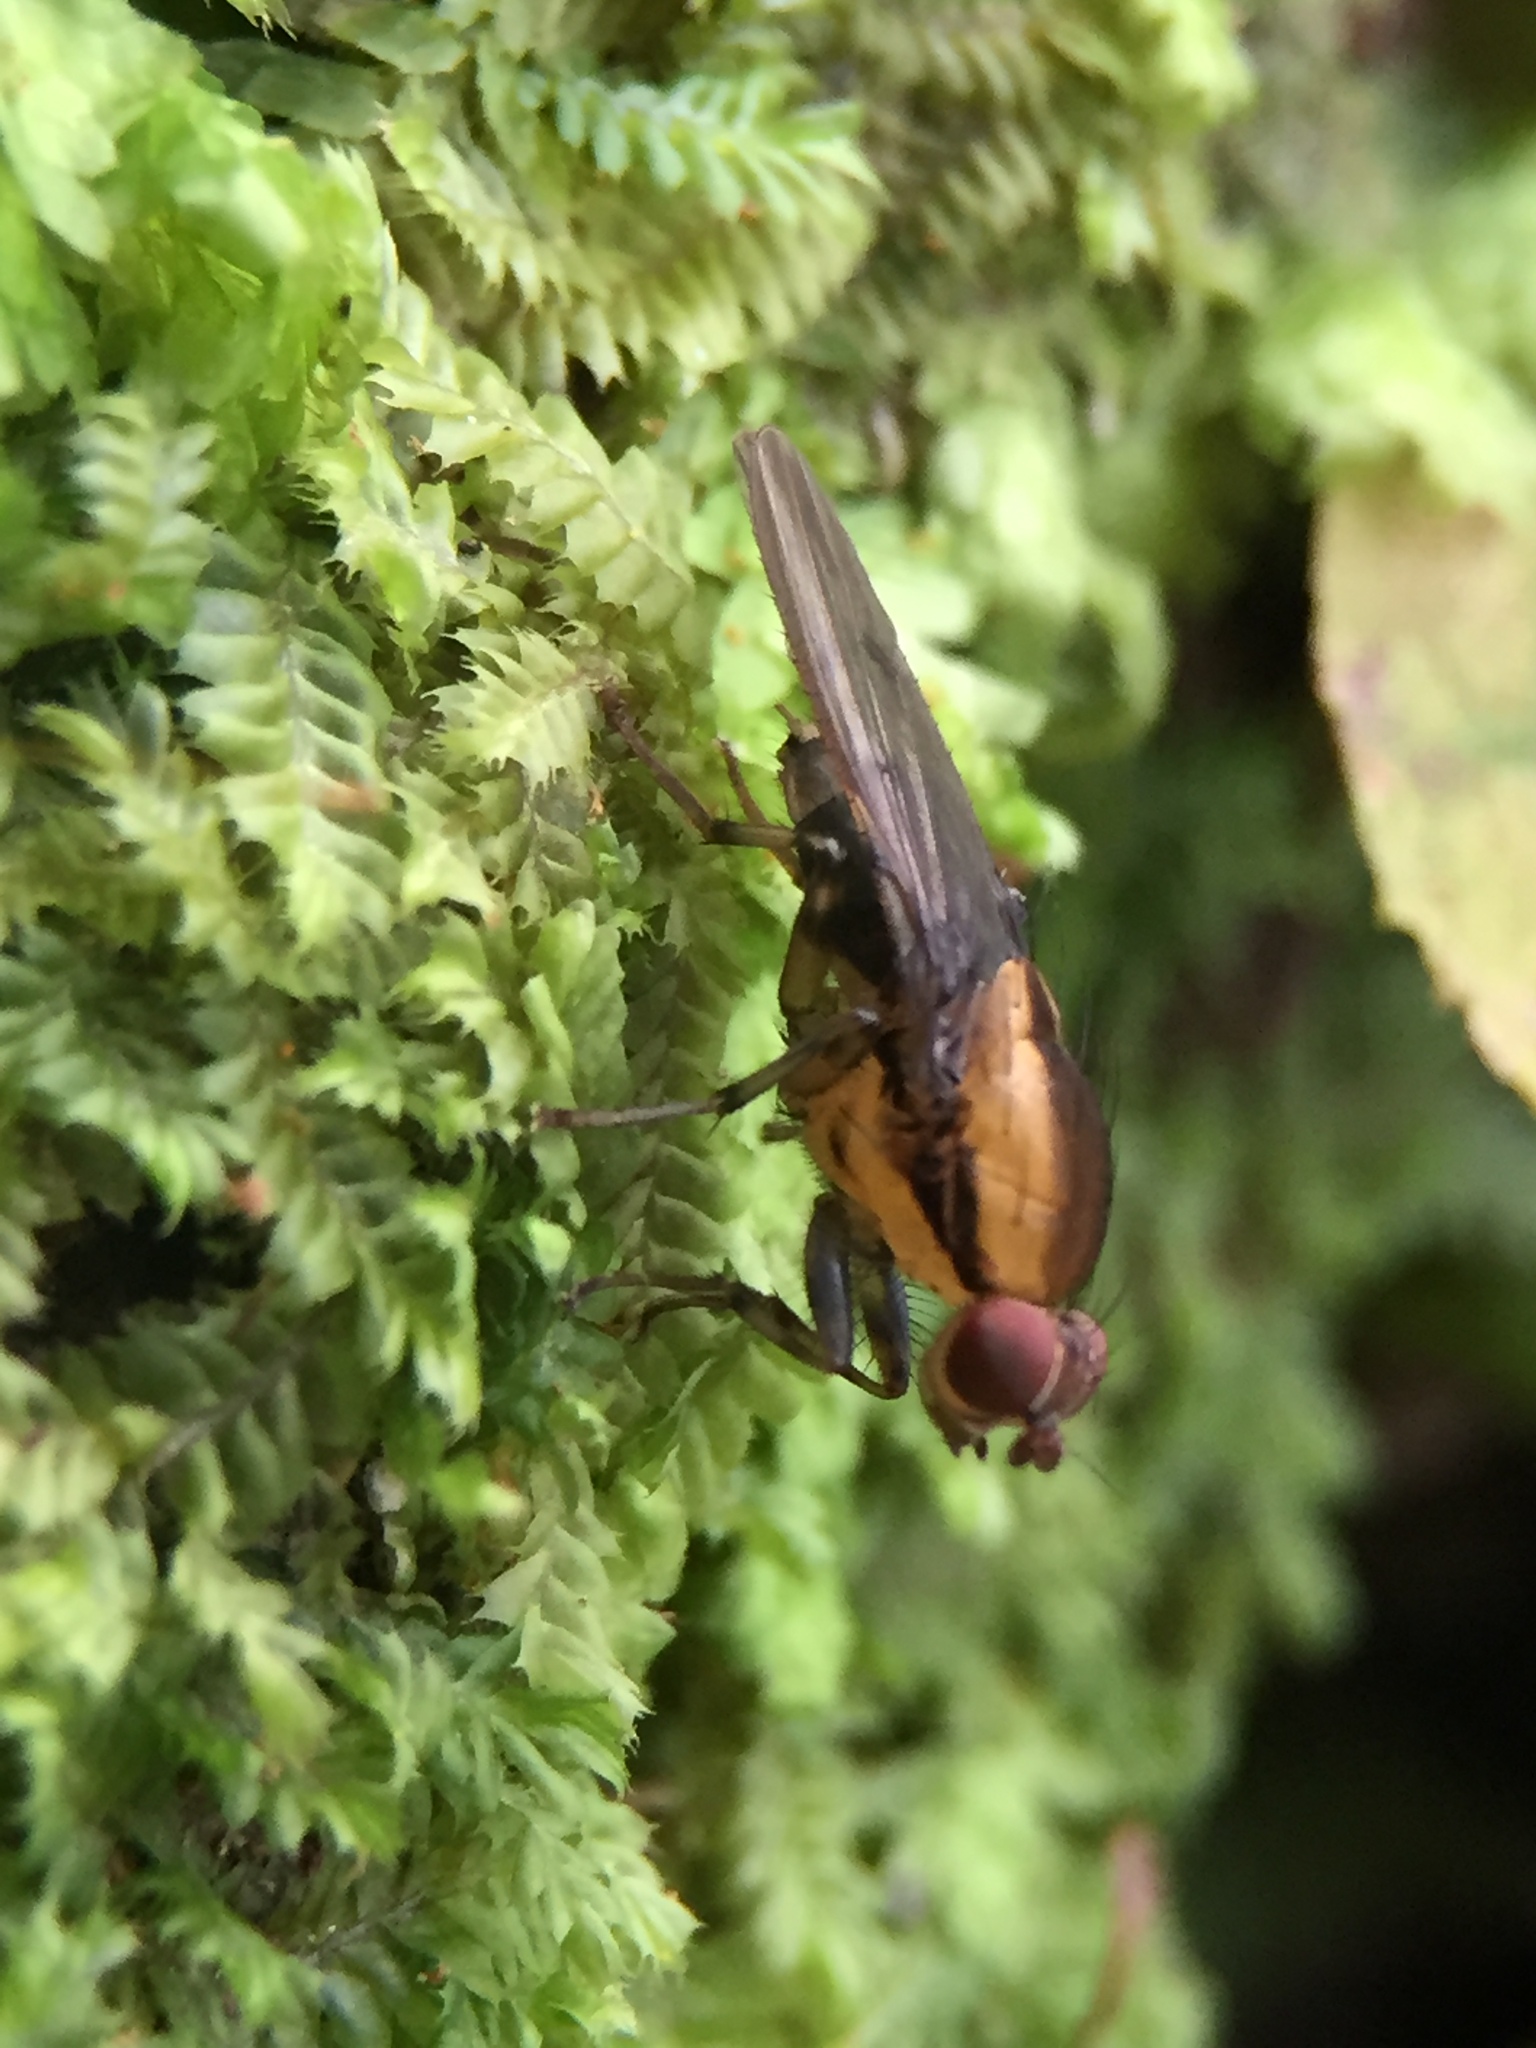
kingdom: Animalia
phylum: Arthropoda
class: Insecta
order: Diptera
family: Helosciomyzidae
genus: Scordalus
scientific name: Scordalus femoratus
